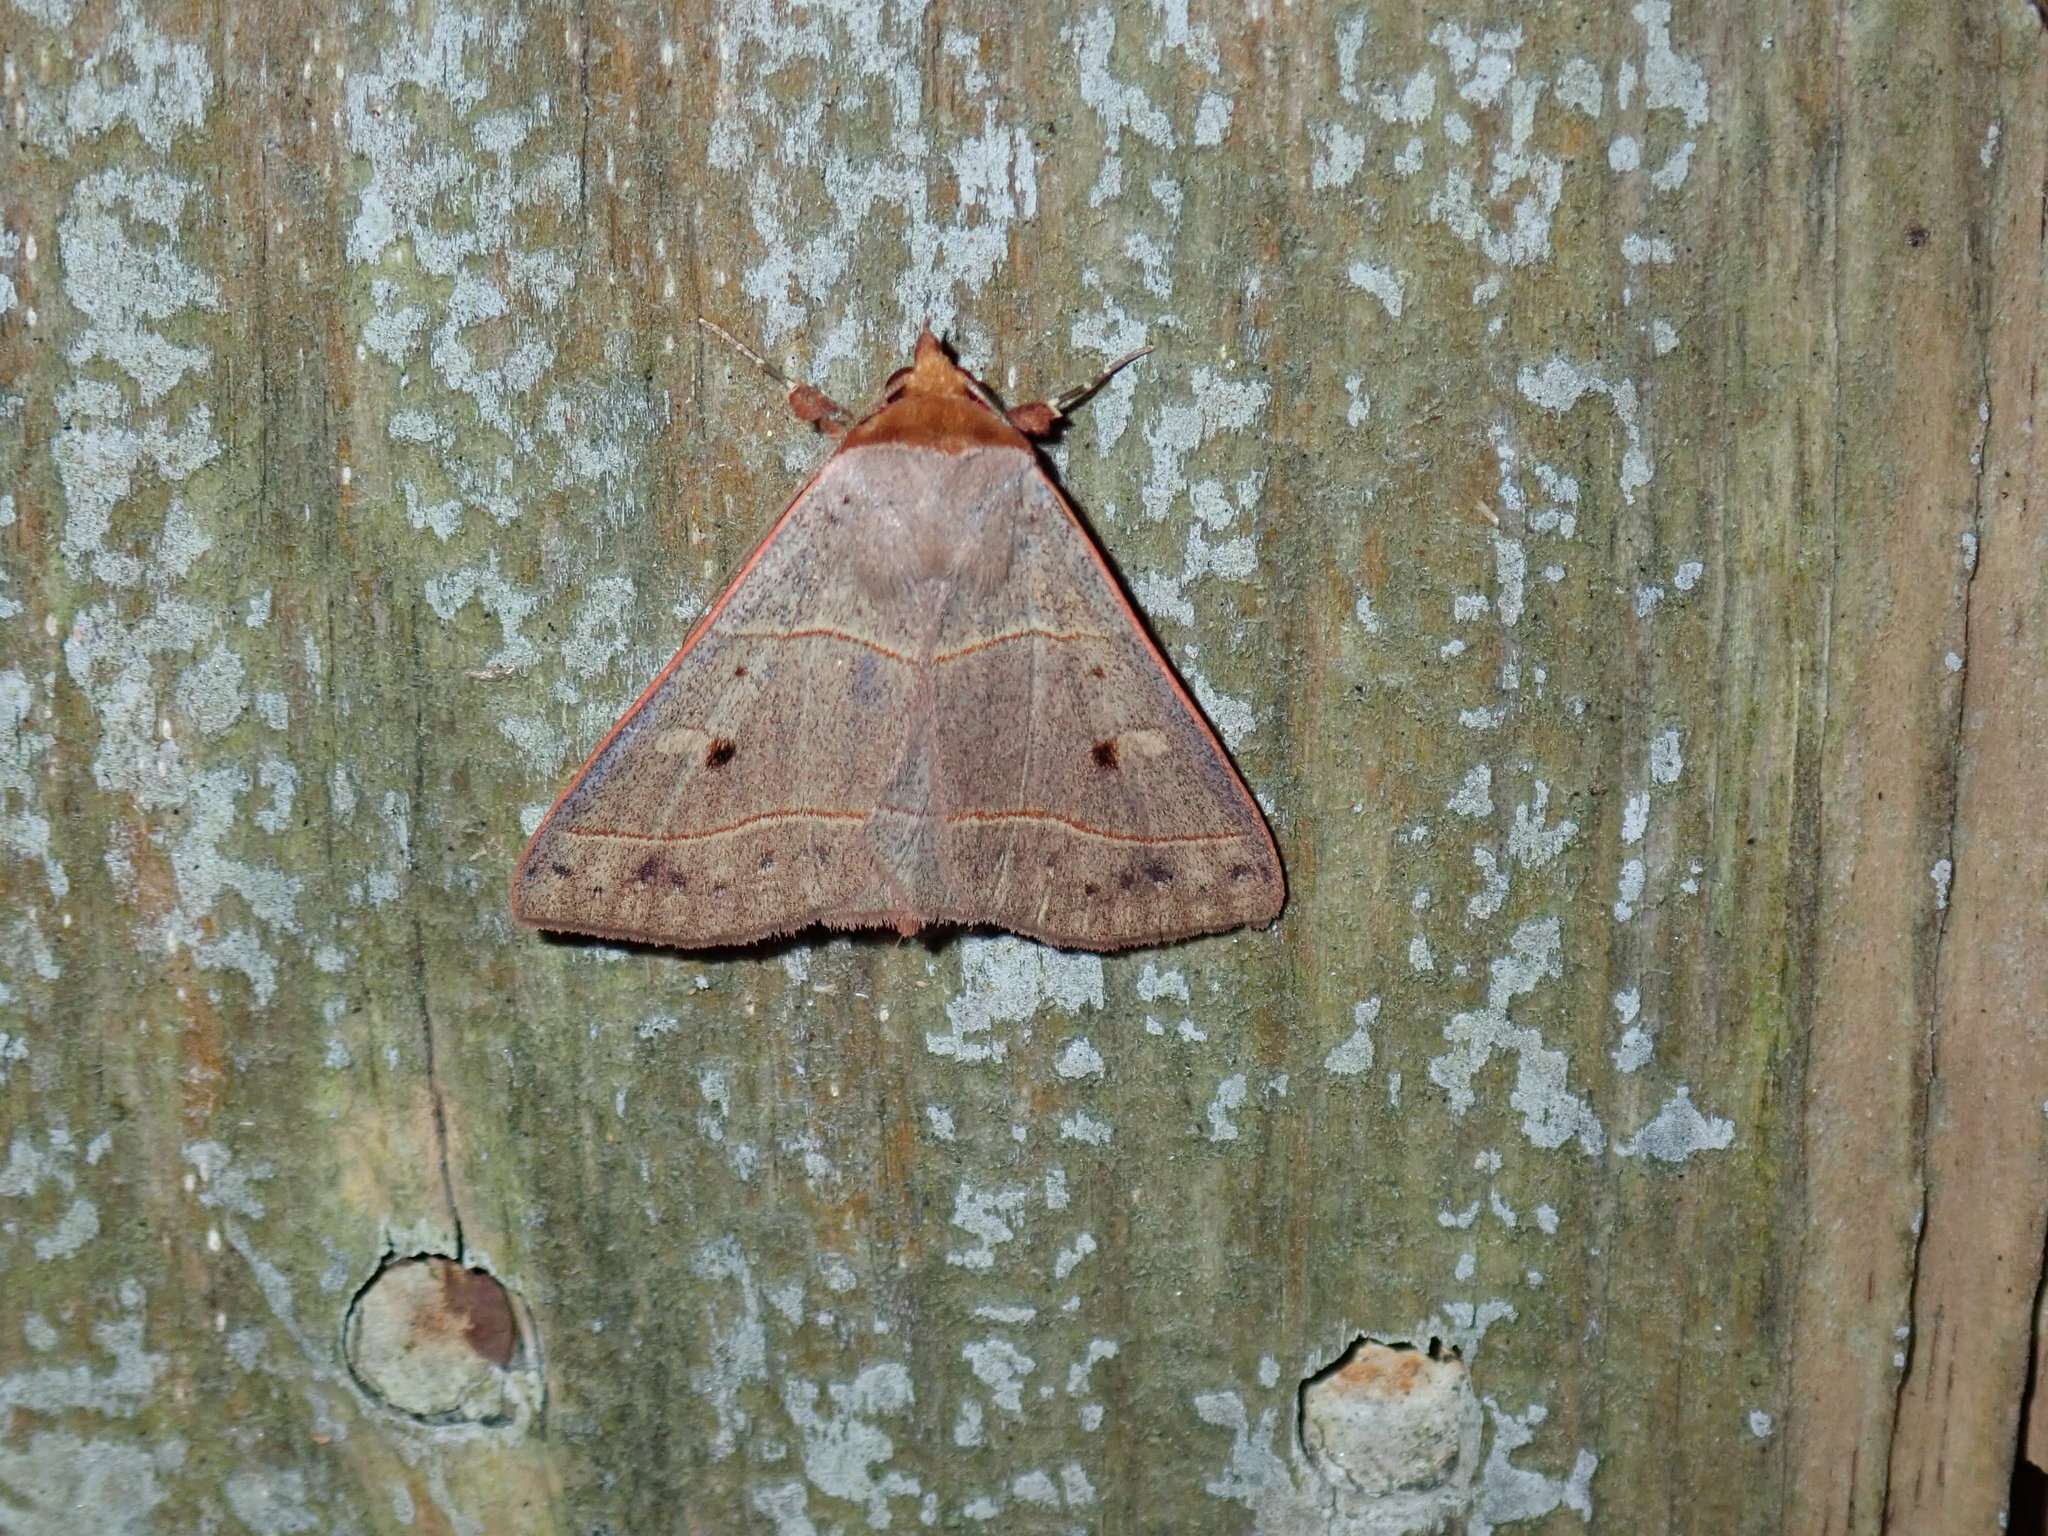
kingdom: Animalia
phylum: Arthropoda
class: Insecta
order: Lepidoptera
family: Erebidae
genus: Panopoda
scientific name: Panopoda rufimargo
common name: Red-lined panopoda moth
